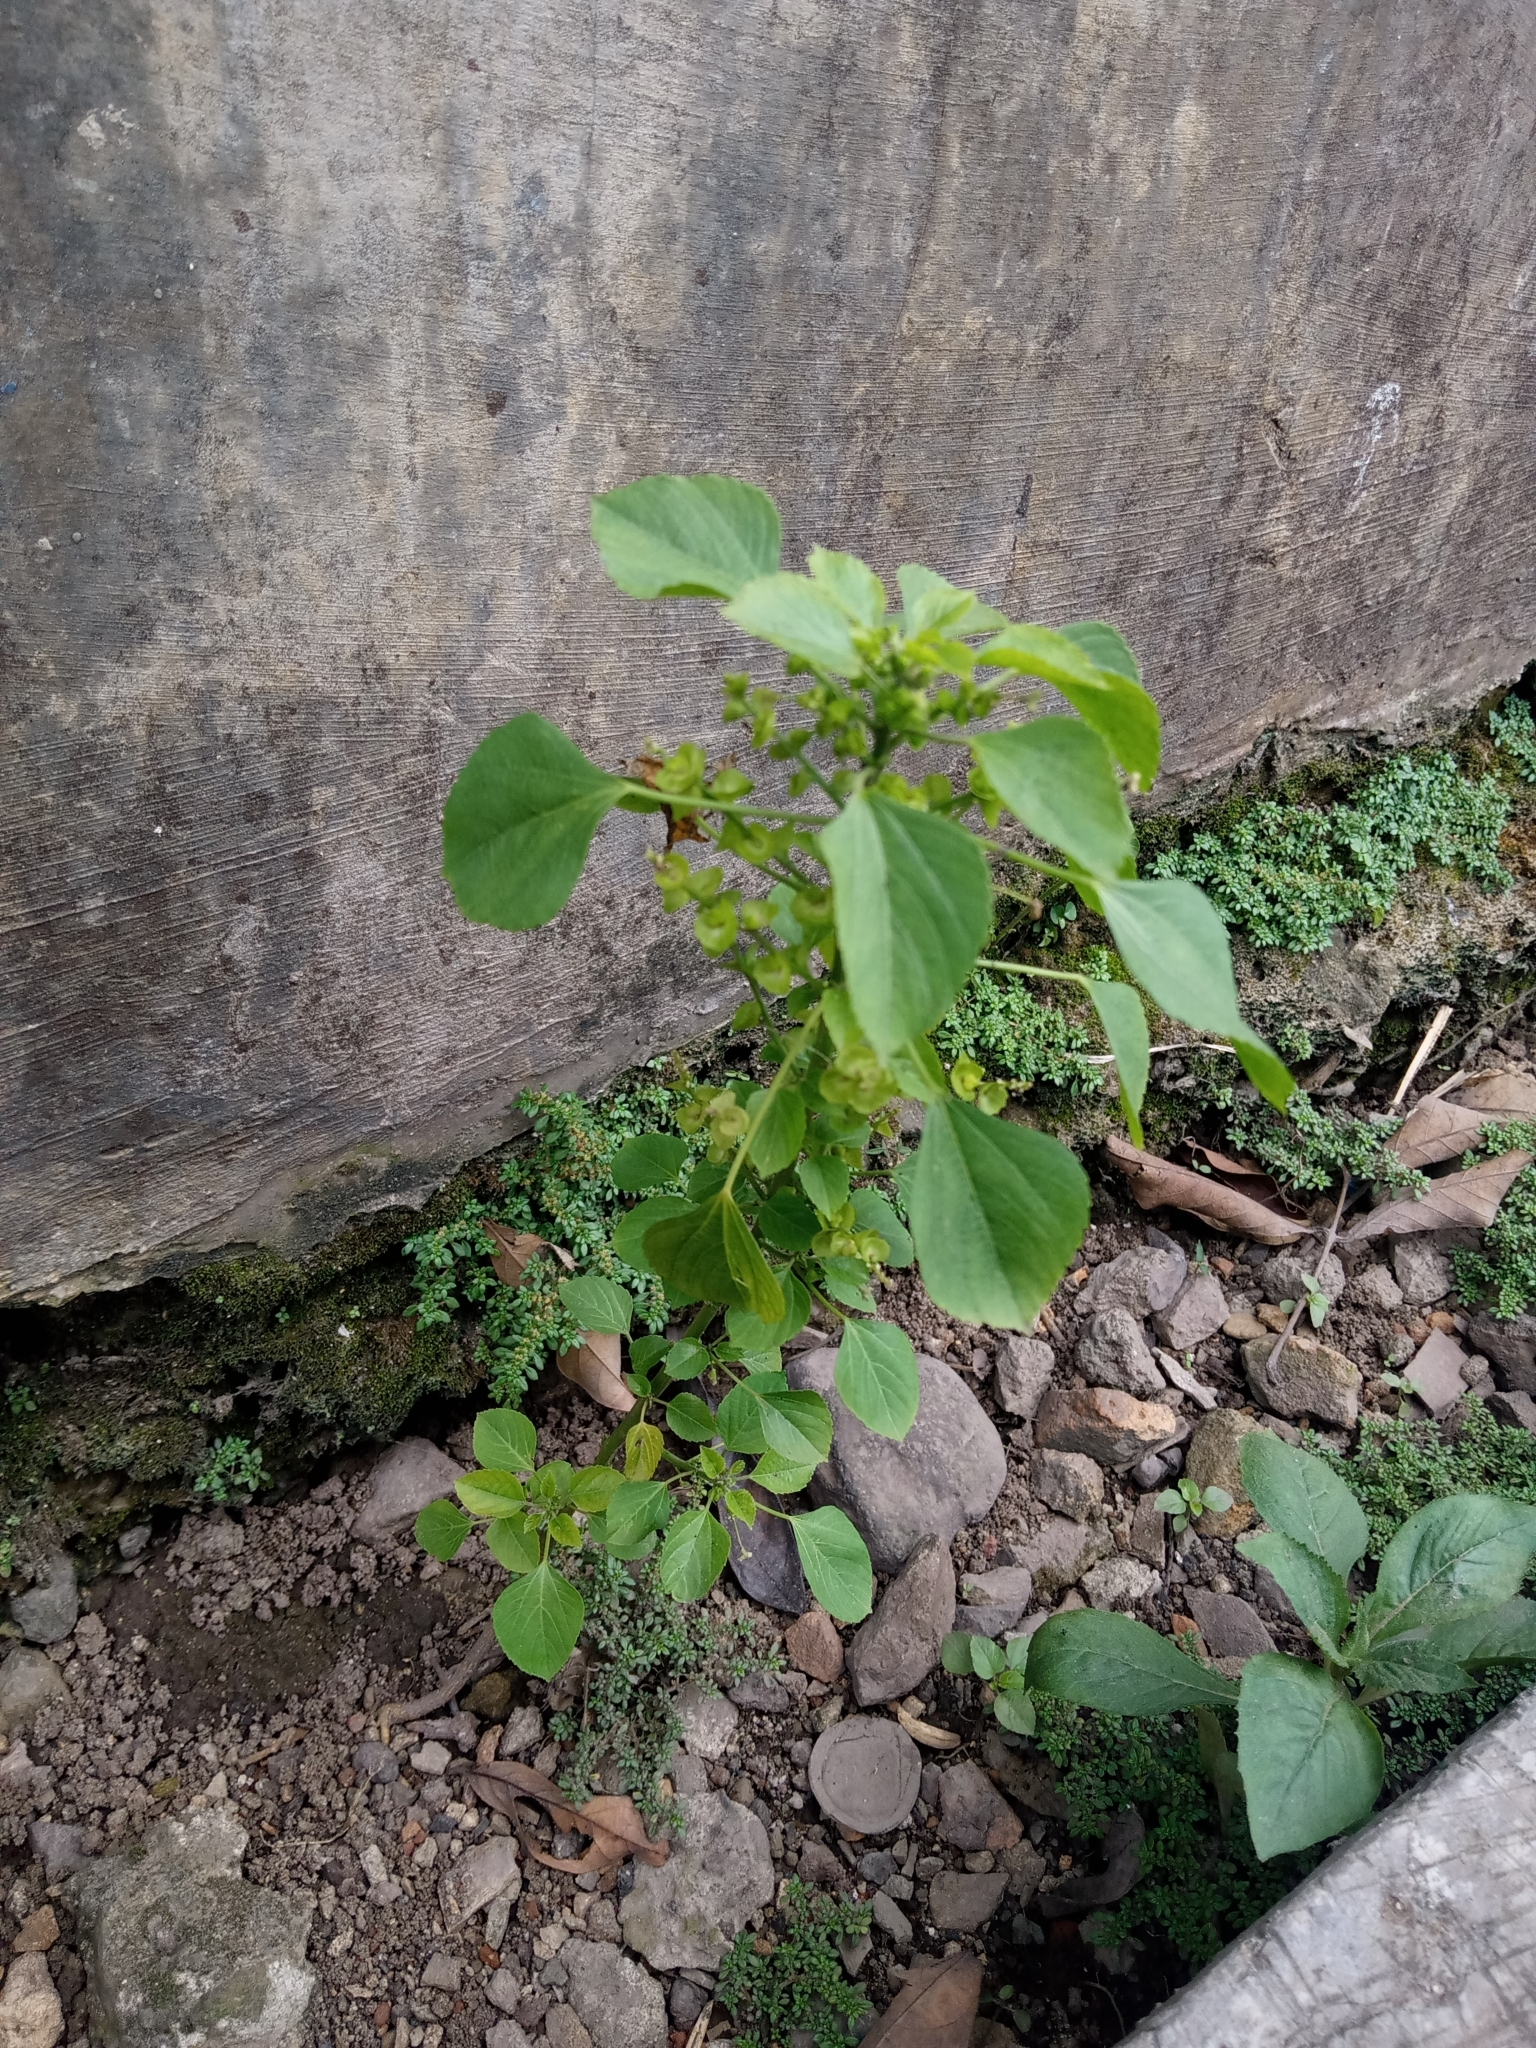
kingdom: Plantae
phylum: Tracheophyta
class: Magnoliopsida
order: Malpighiales
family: Euphorbiaceae
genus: Acalypha
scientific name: Acalypha indica
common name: Indian acalypha
